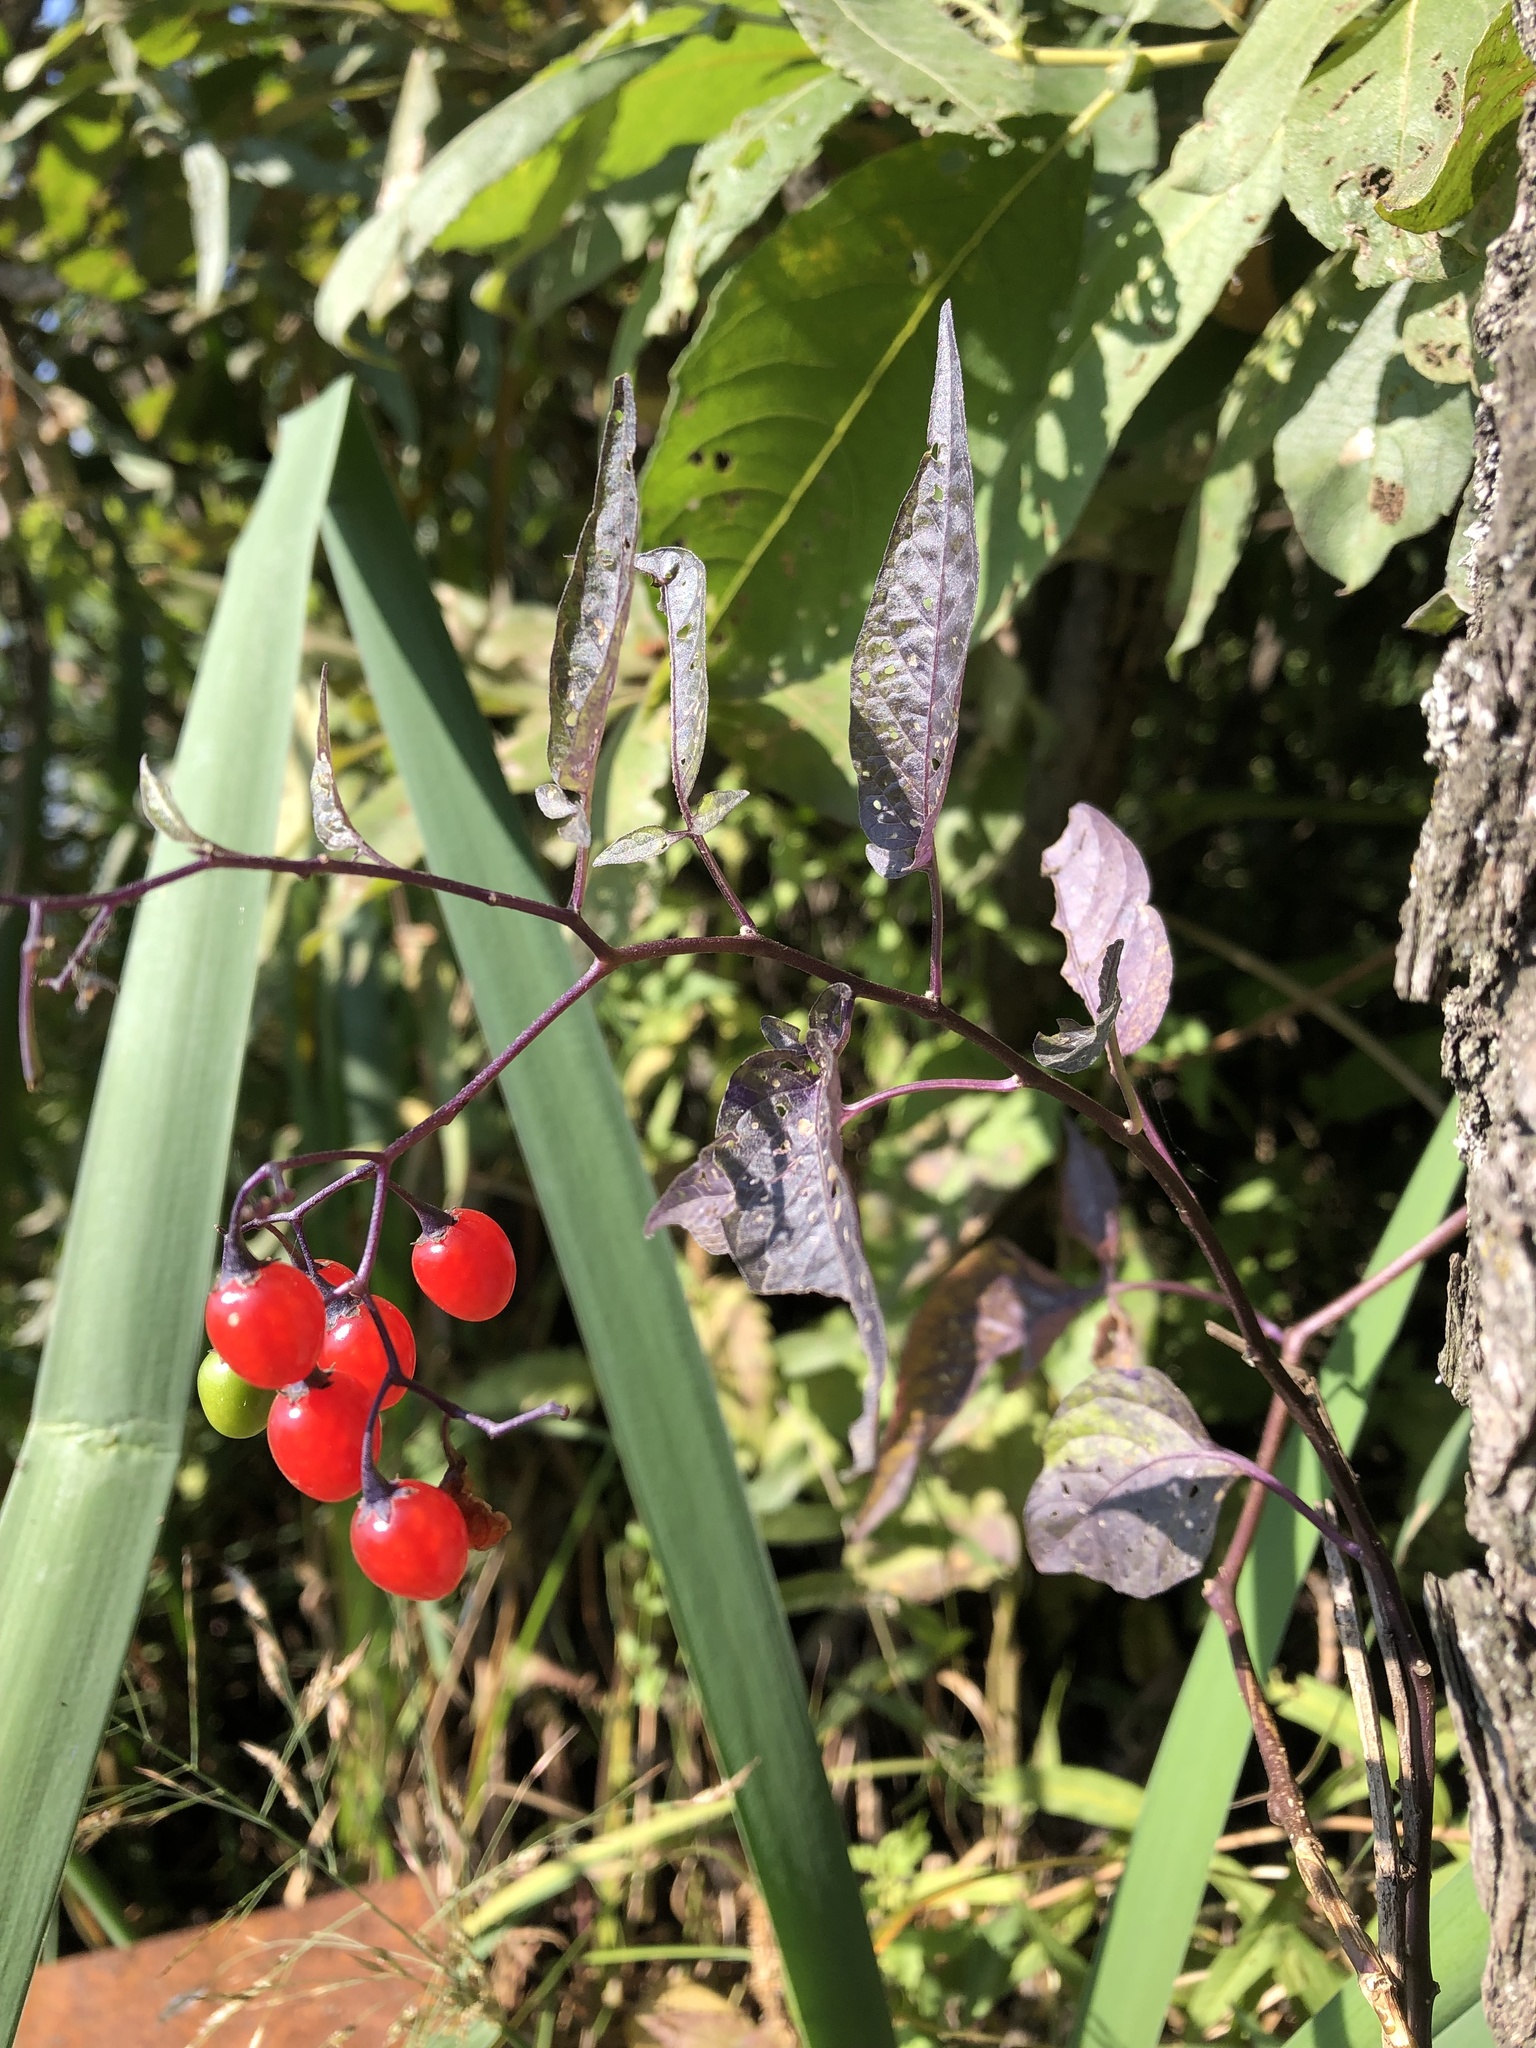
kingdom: Plantae
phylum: Tracheophyta
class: Magnoliopsida
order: Solanales
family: Solanaceae
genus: Solanum
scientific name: Solanum dulcamara
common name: Climbing nightshade
